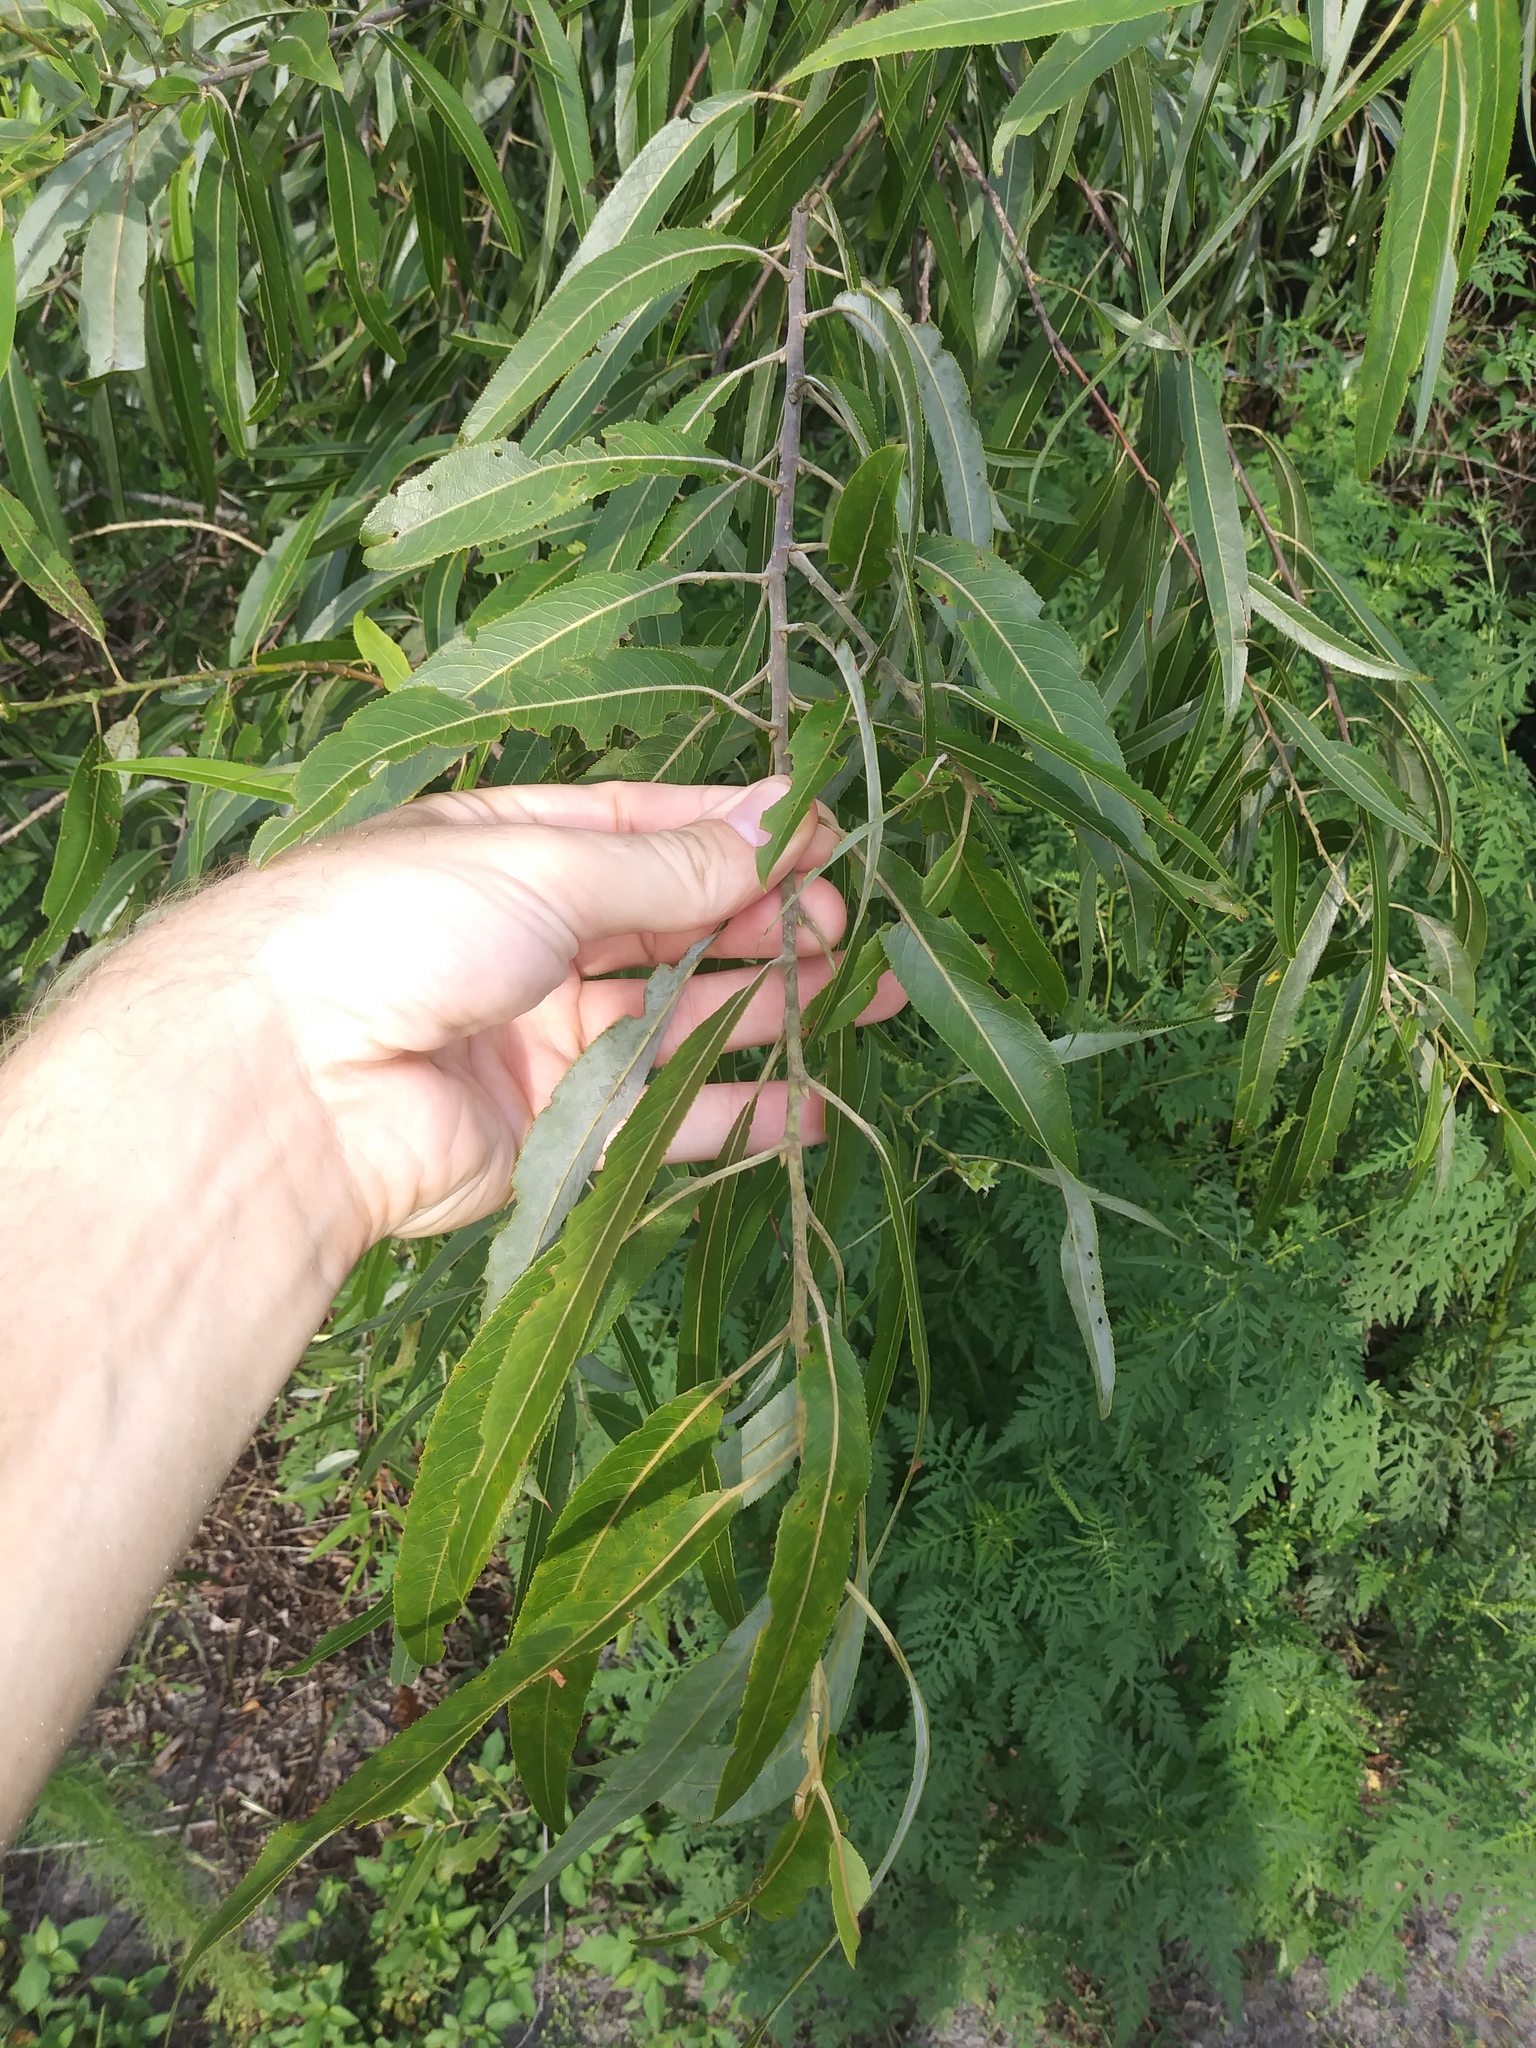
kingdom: Plantae
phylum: Tracheophyta
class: Magnoliopsida
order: Malpighiales
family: Salicaceae
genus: Salix
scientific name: Salix caroliniana
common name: Carolina willow
